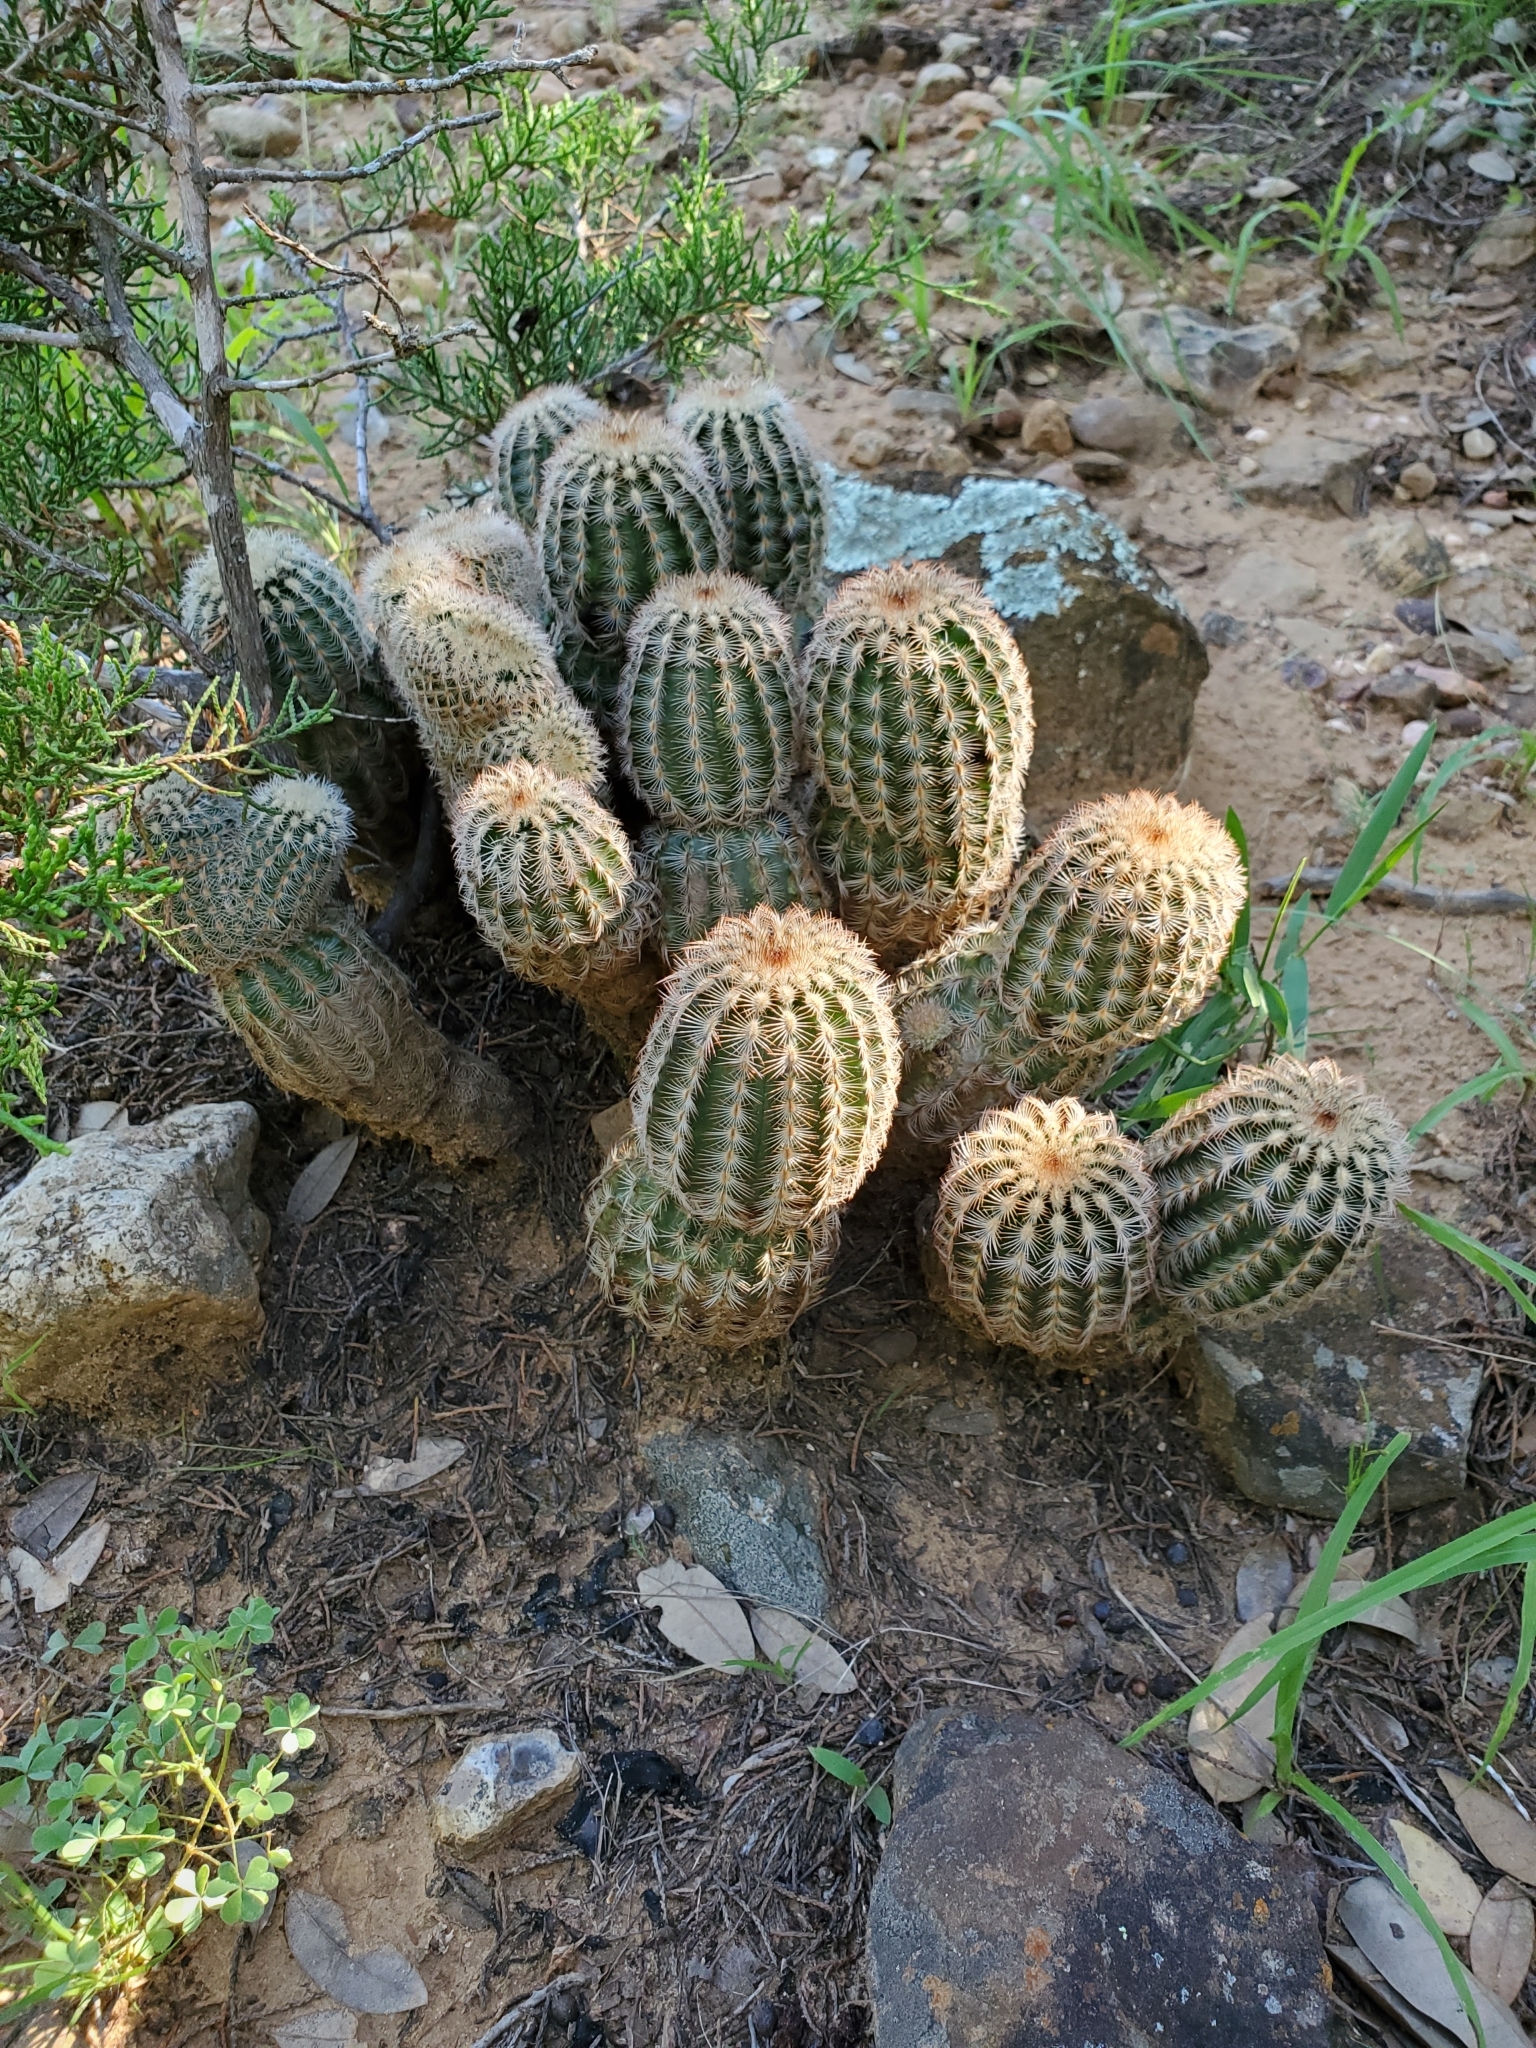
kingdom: Plantae
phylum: Tracheophyta
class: Magnoliopsida
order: Caryophyllales
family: Cactaceae
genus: Echinocereus
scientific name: Echinocereus reichenbachii
